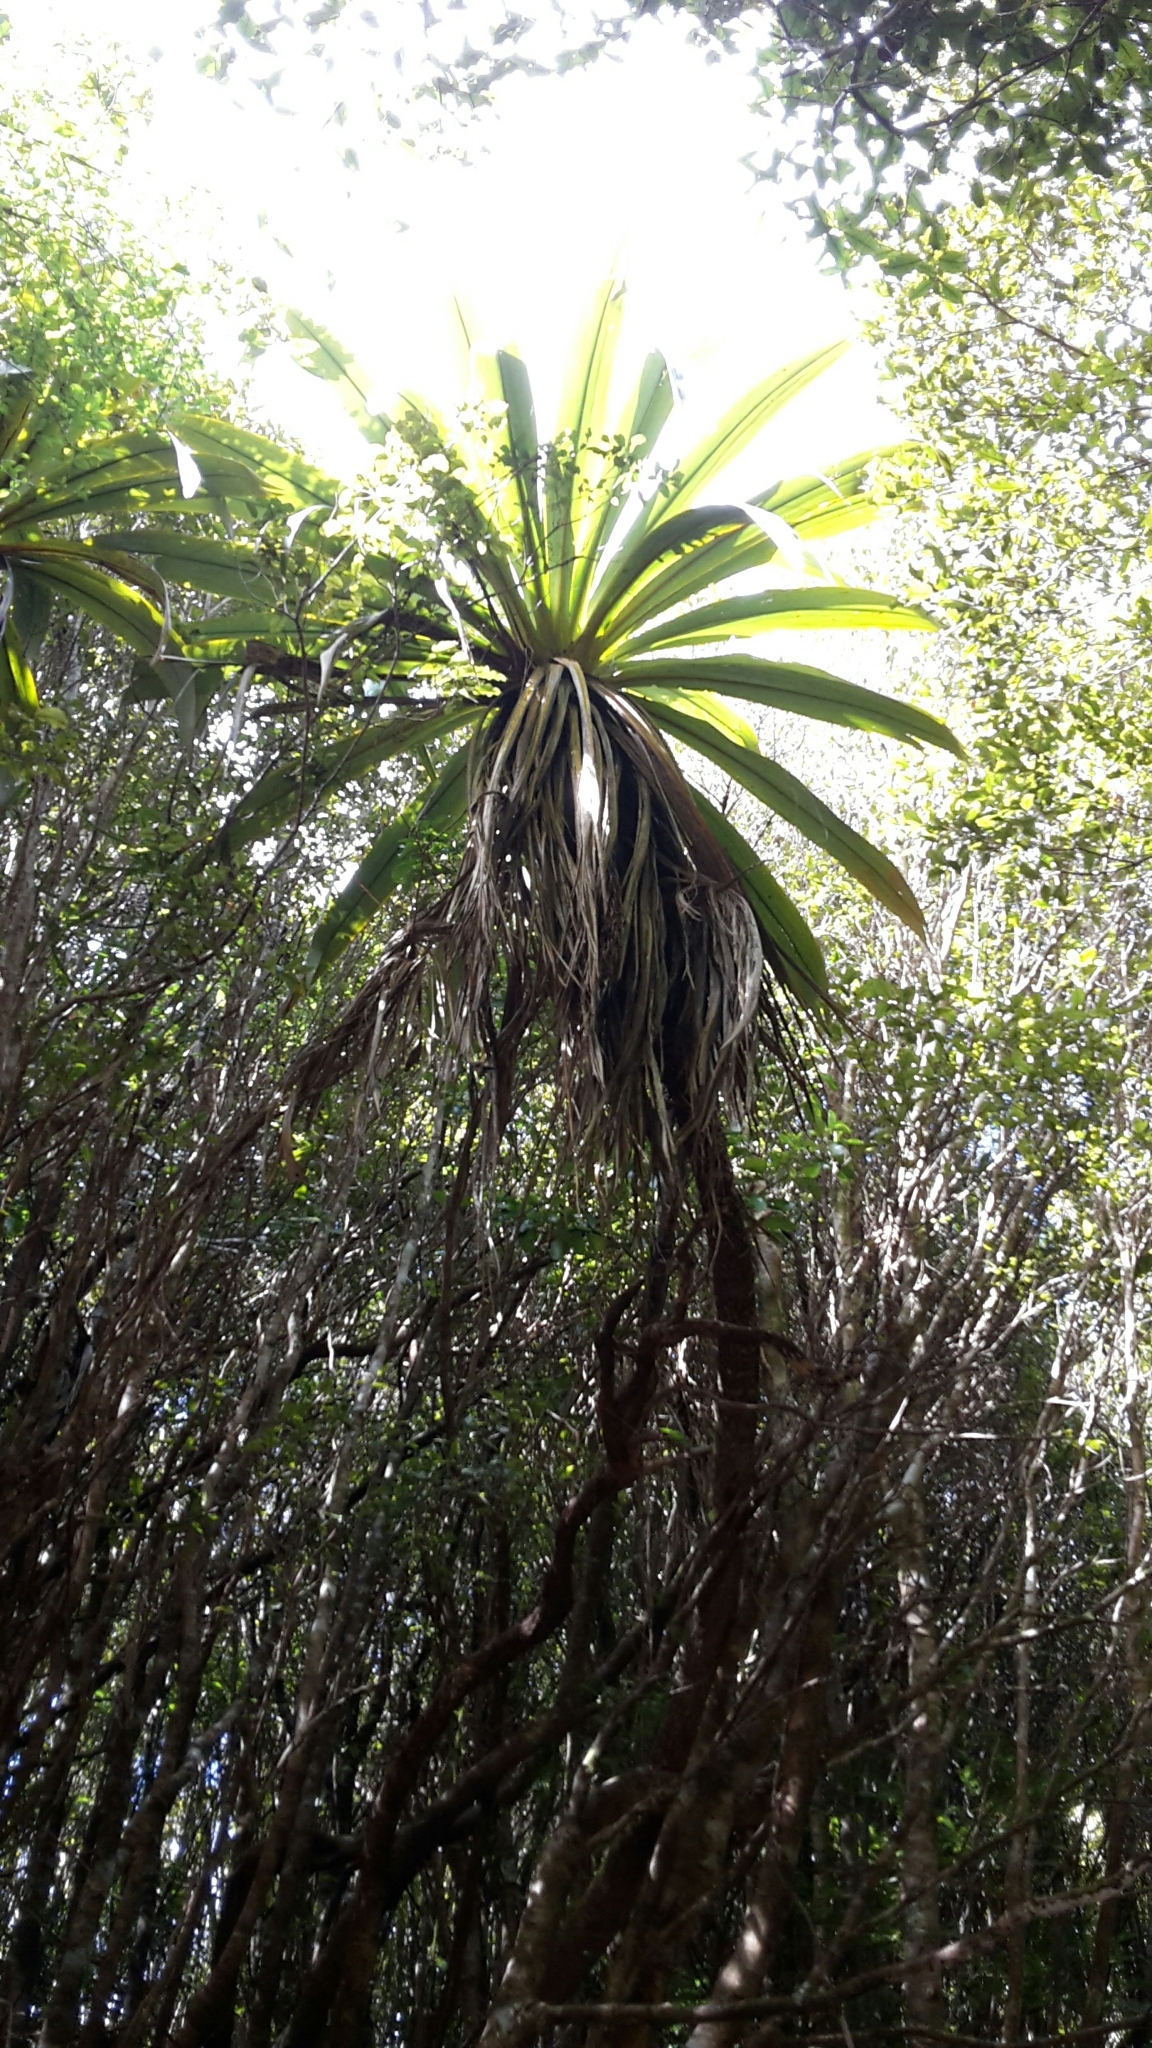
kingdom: Plantae
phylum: Tracheophyta
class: Liliopsida
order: Asparagales
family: Asparagaceae
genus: Cordyline
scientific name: Cordyline indivisa
